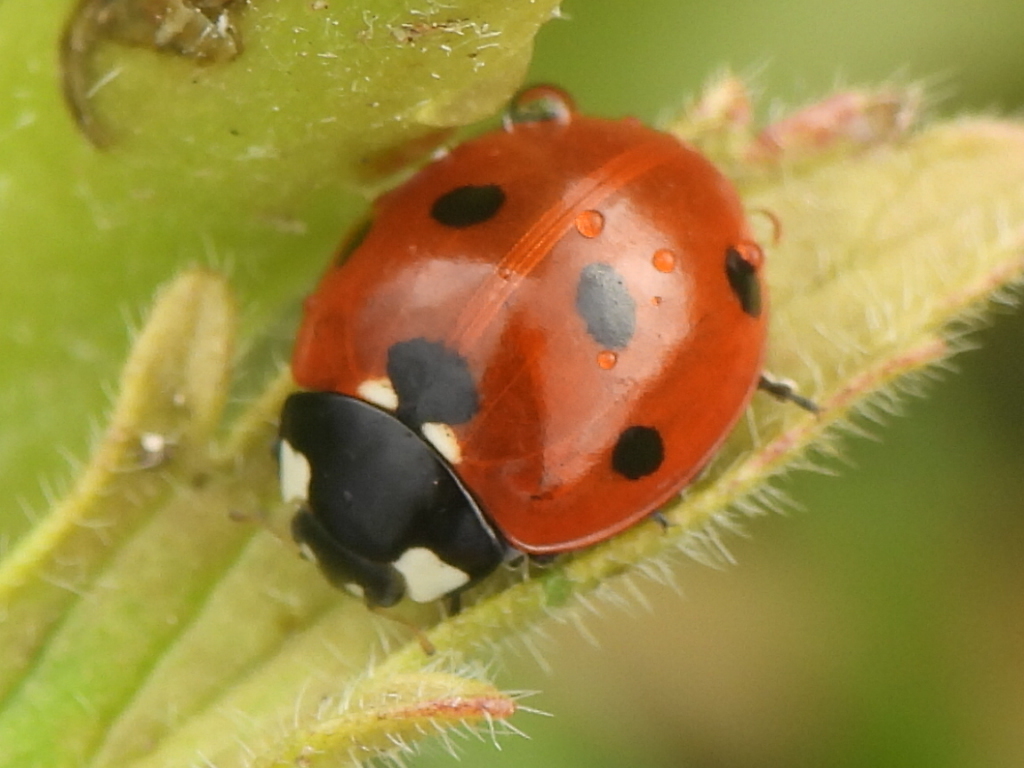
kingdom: Animalia
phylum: Arthropoda
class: Insecta
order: Coleoptera
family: Coccinellidae
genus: Coccinella
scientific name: Coccinella septempunctata
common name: Sevenspotted lady beetle
